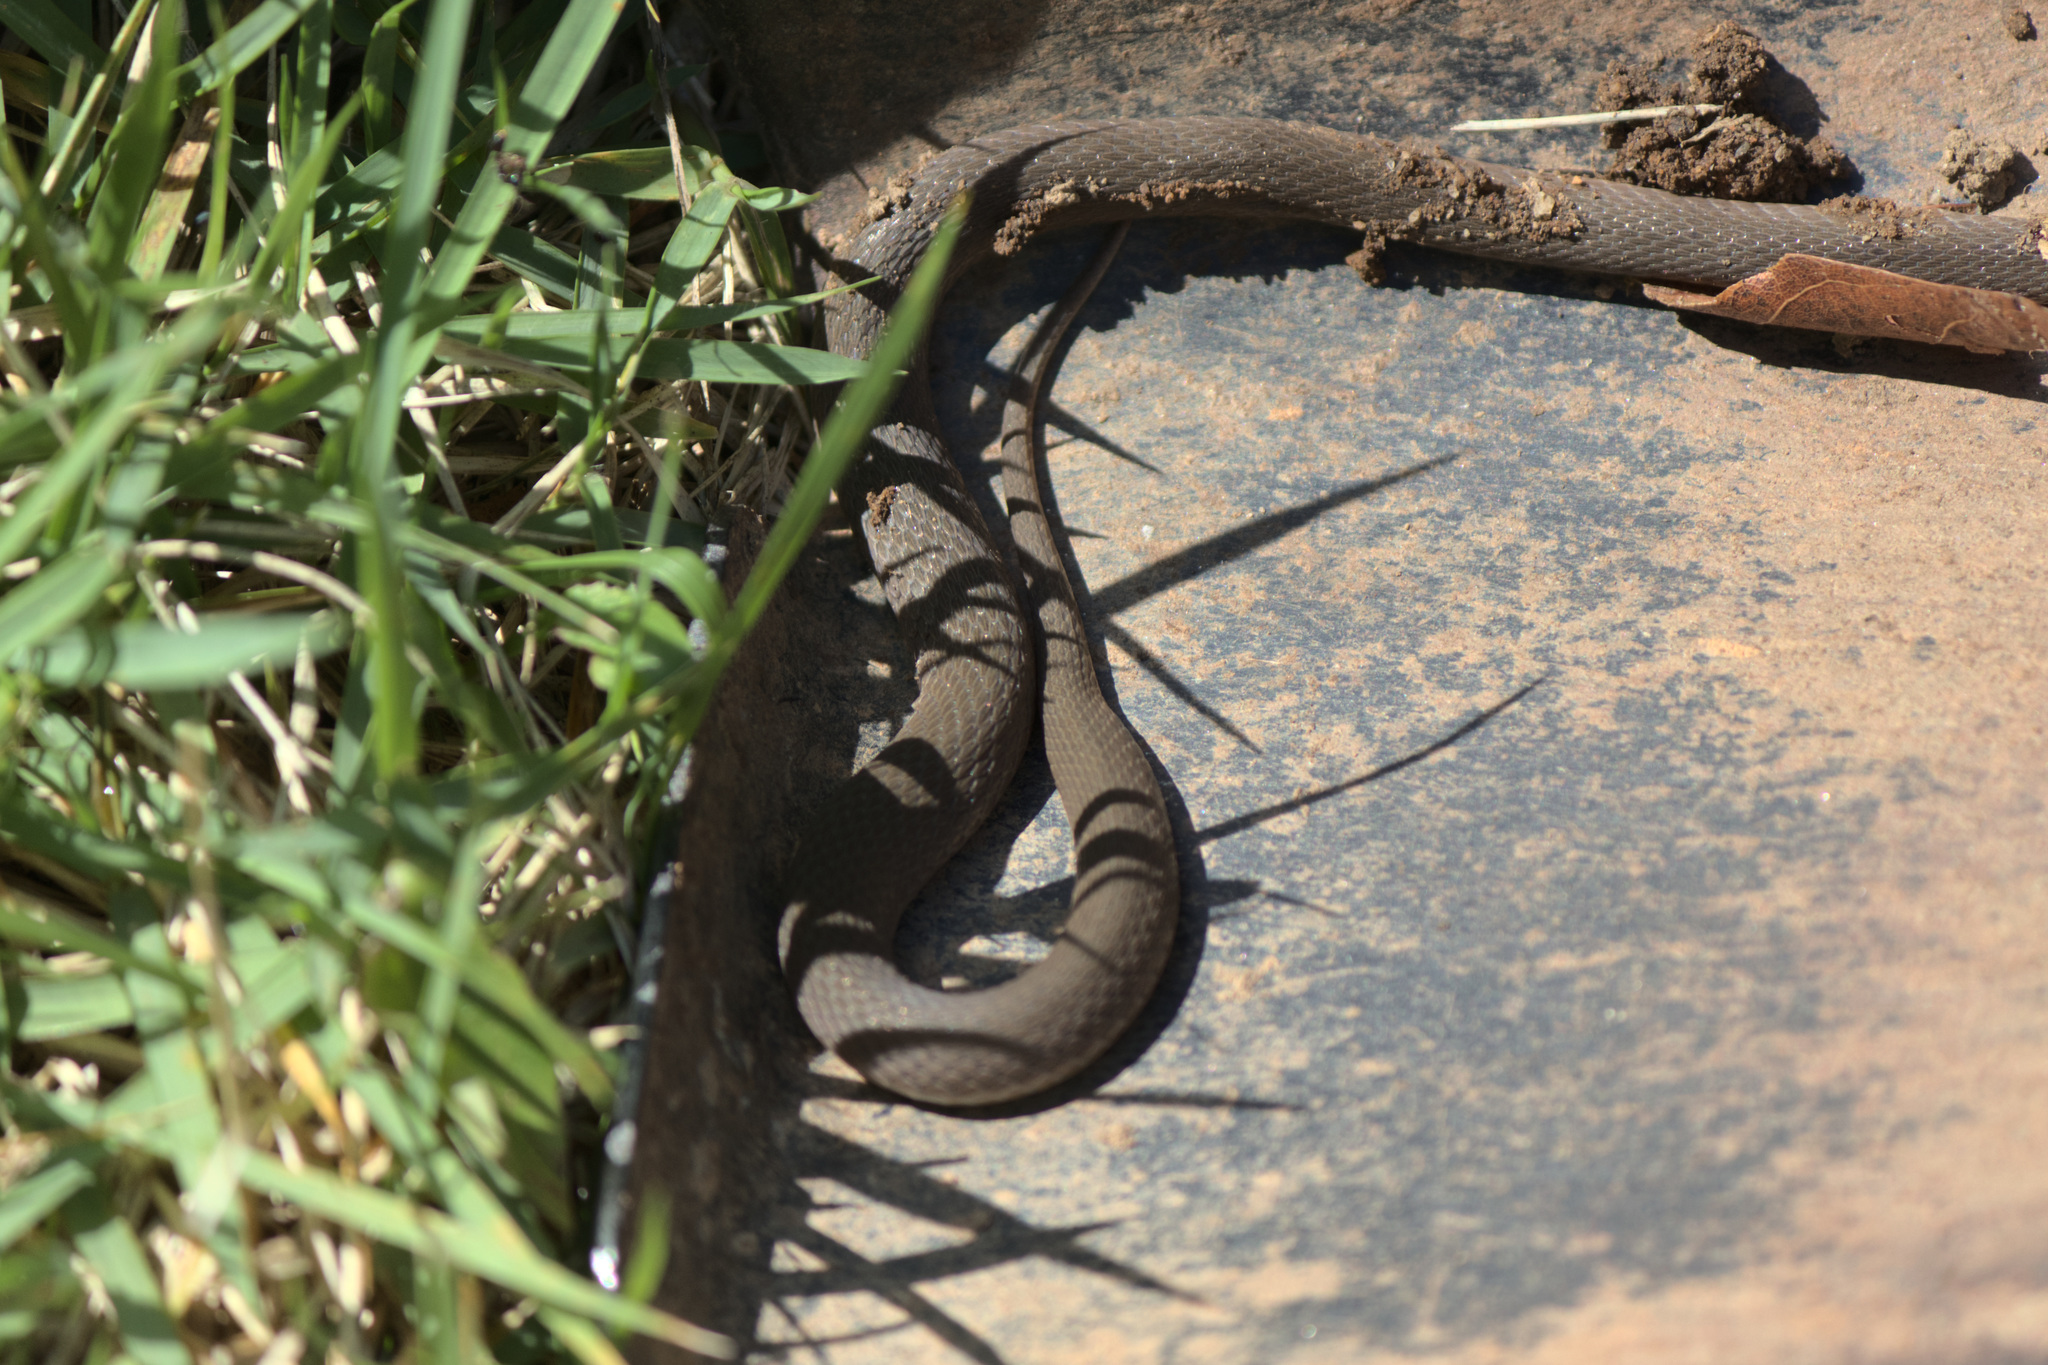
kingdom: Animalia
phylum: Chordata
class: Squamata
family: Colubridae
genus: Haldea
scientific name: Haldea striatula
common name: Rough earth snake
